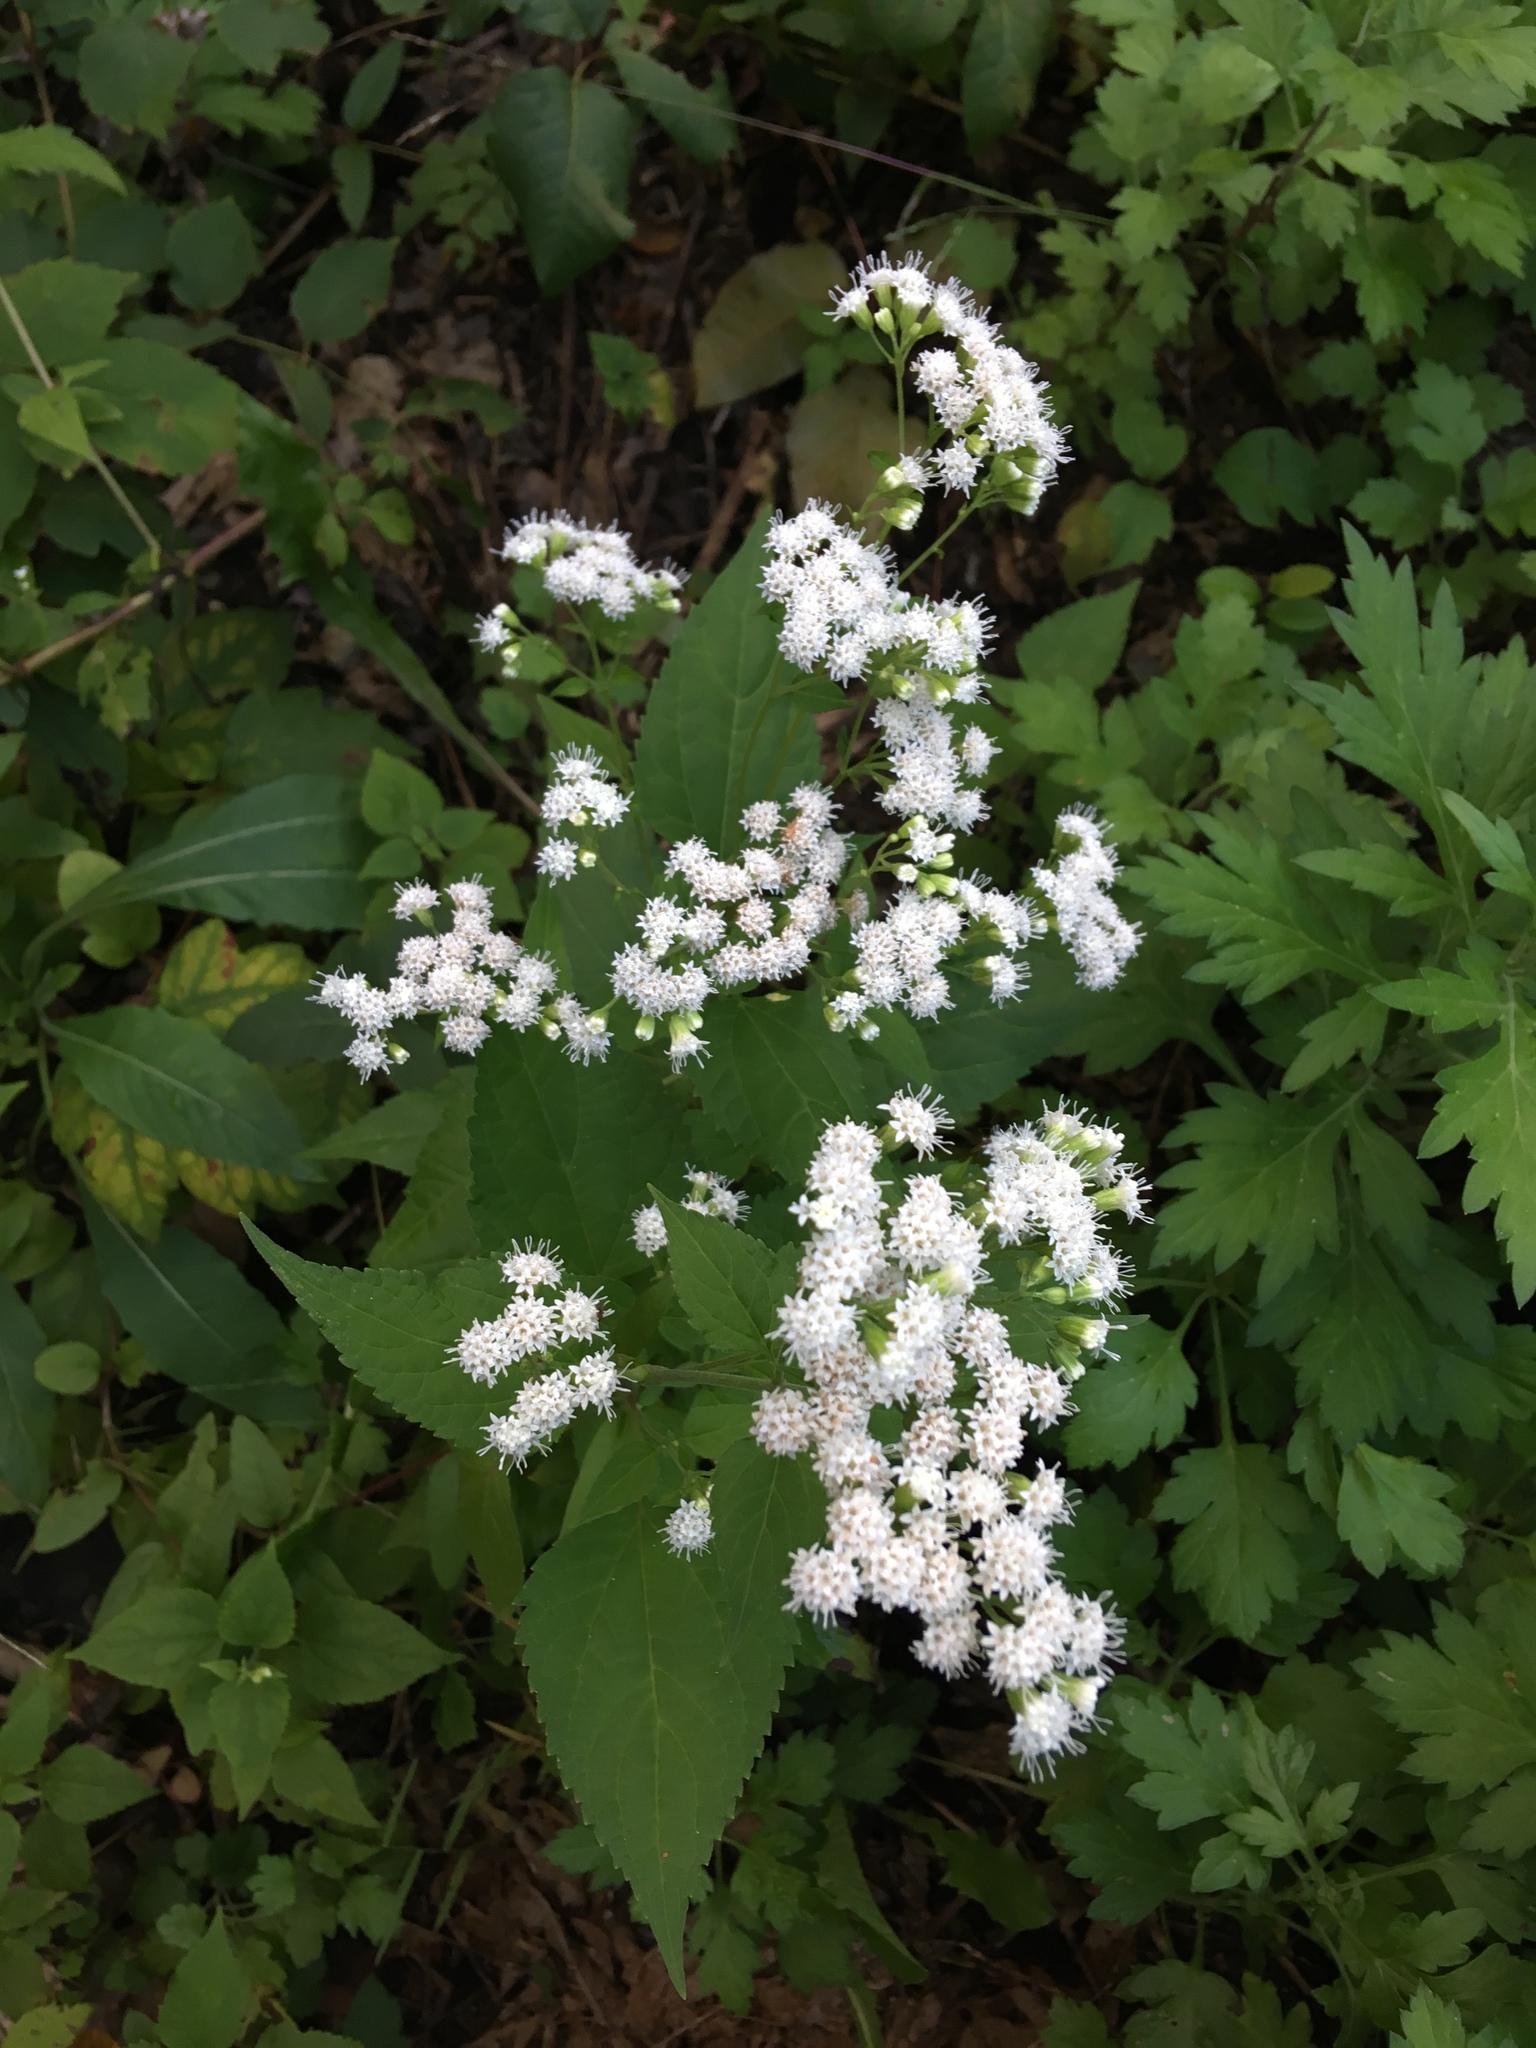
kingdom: Plantae
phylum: Tracheophyta
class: Magnoliopsida
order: Asterales
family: Asteraceae
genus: Ageratina
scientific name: Ageratina altissima
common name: White snakeroot
